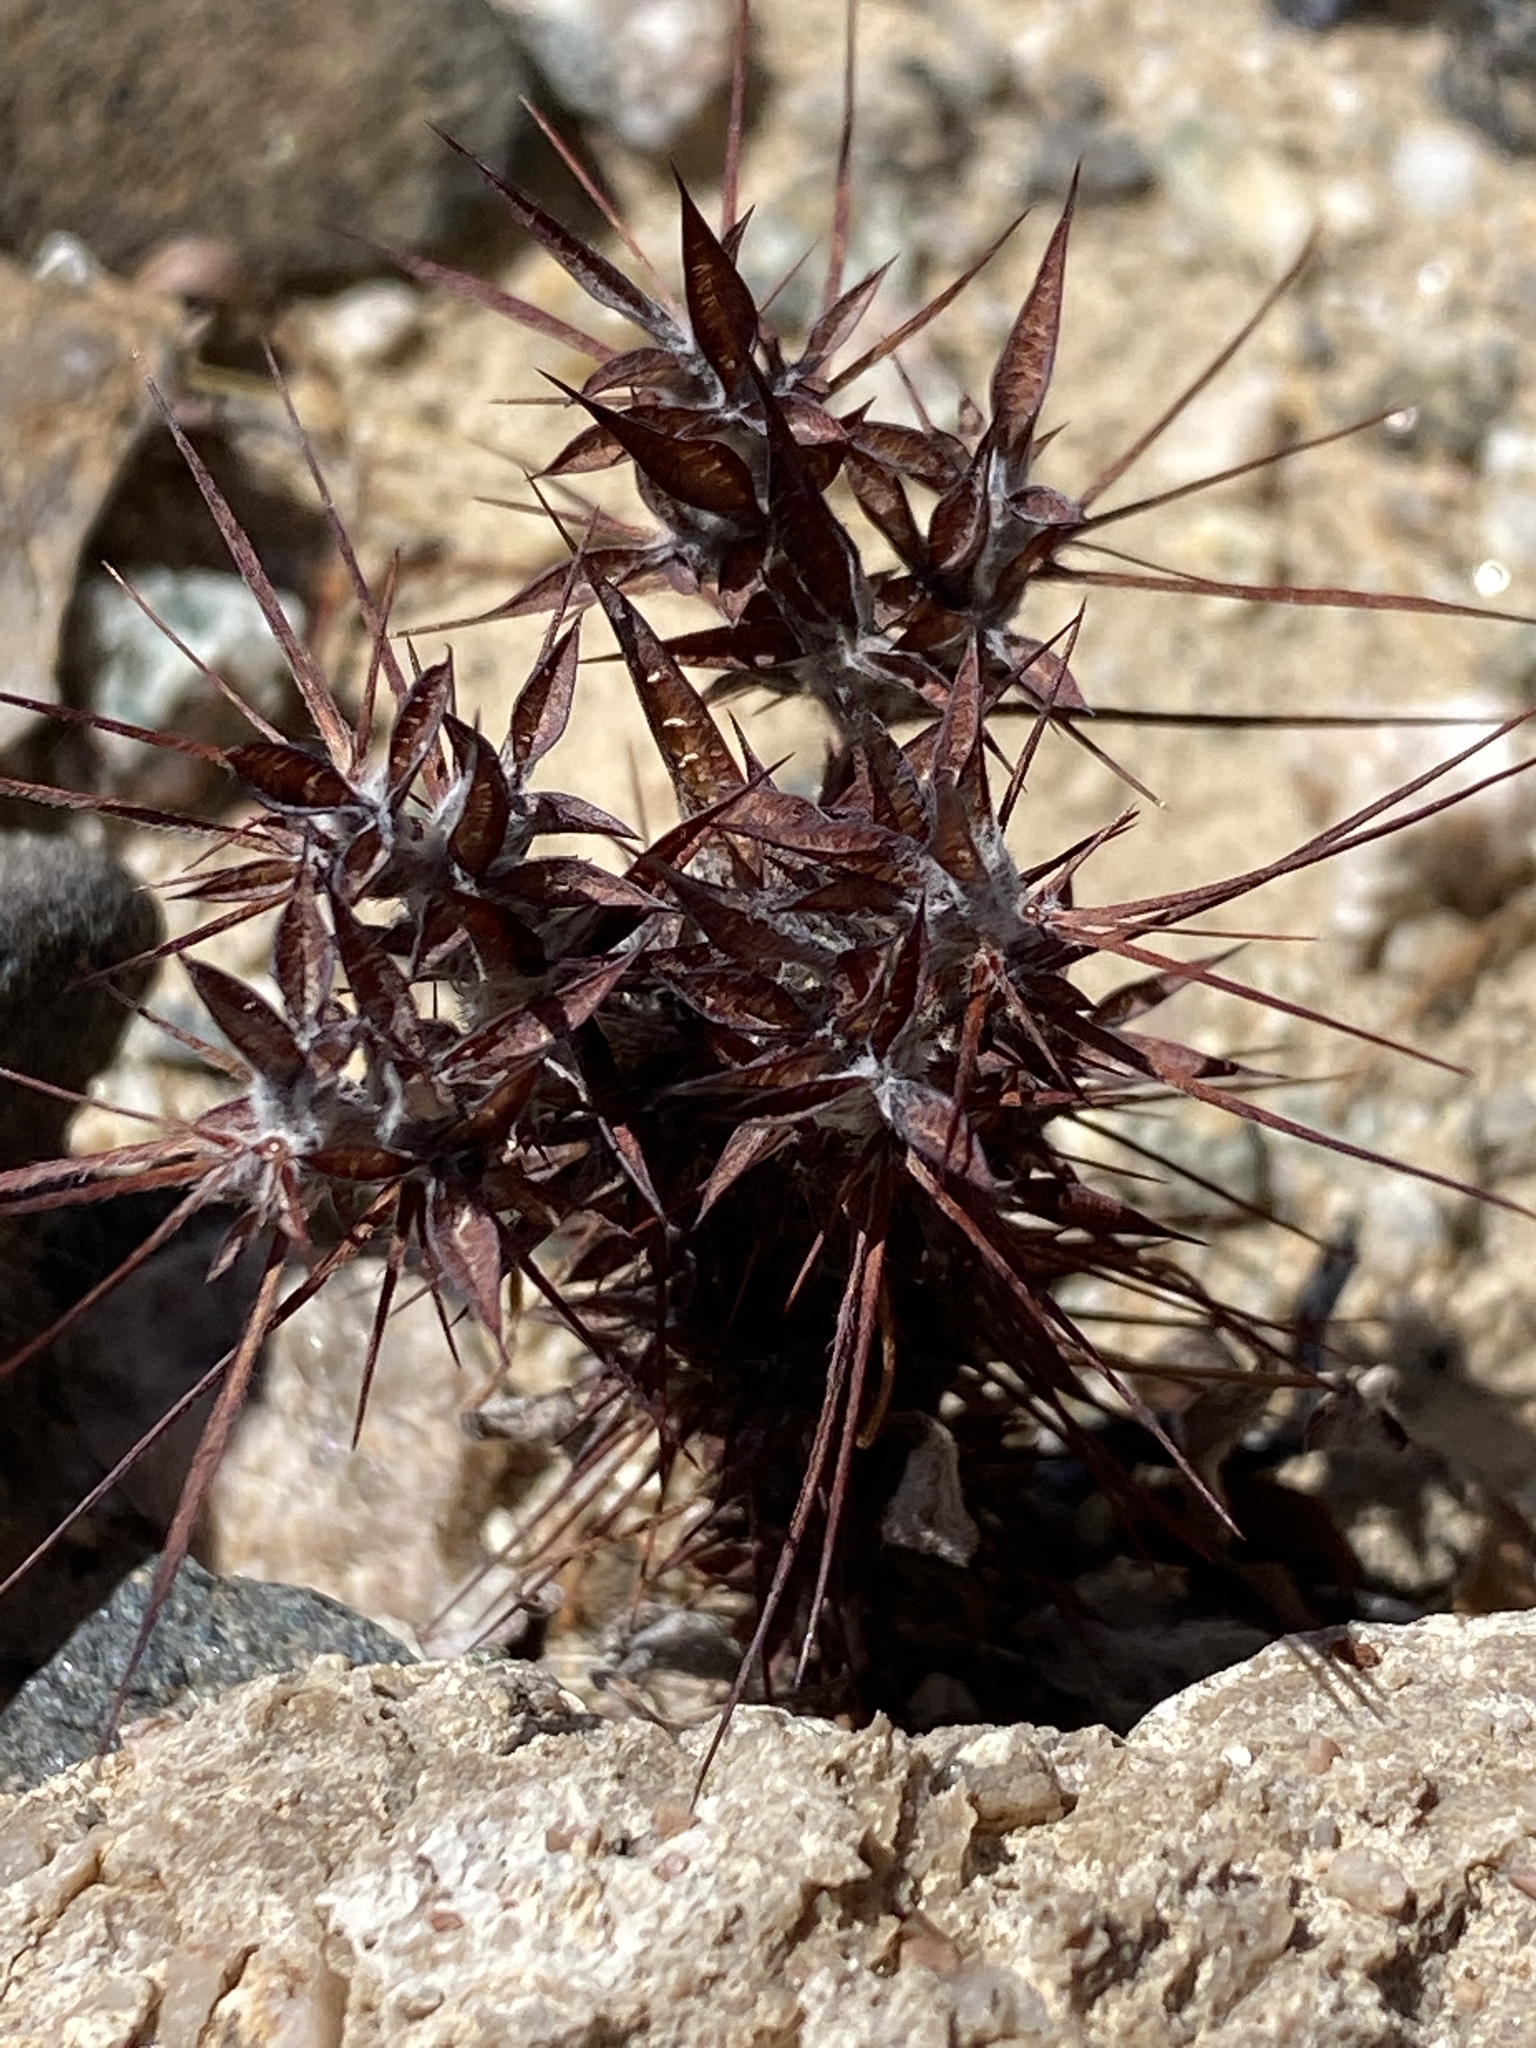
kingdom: Plantae
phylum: Tracheophyta
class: Magnoliopsida
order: Caryophyllales
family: Polygonaceae
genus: Chorizanthe
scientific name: Chorizanthe rigida
